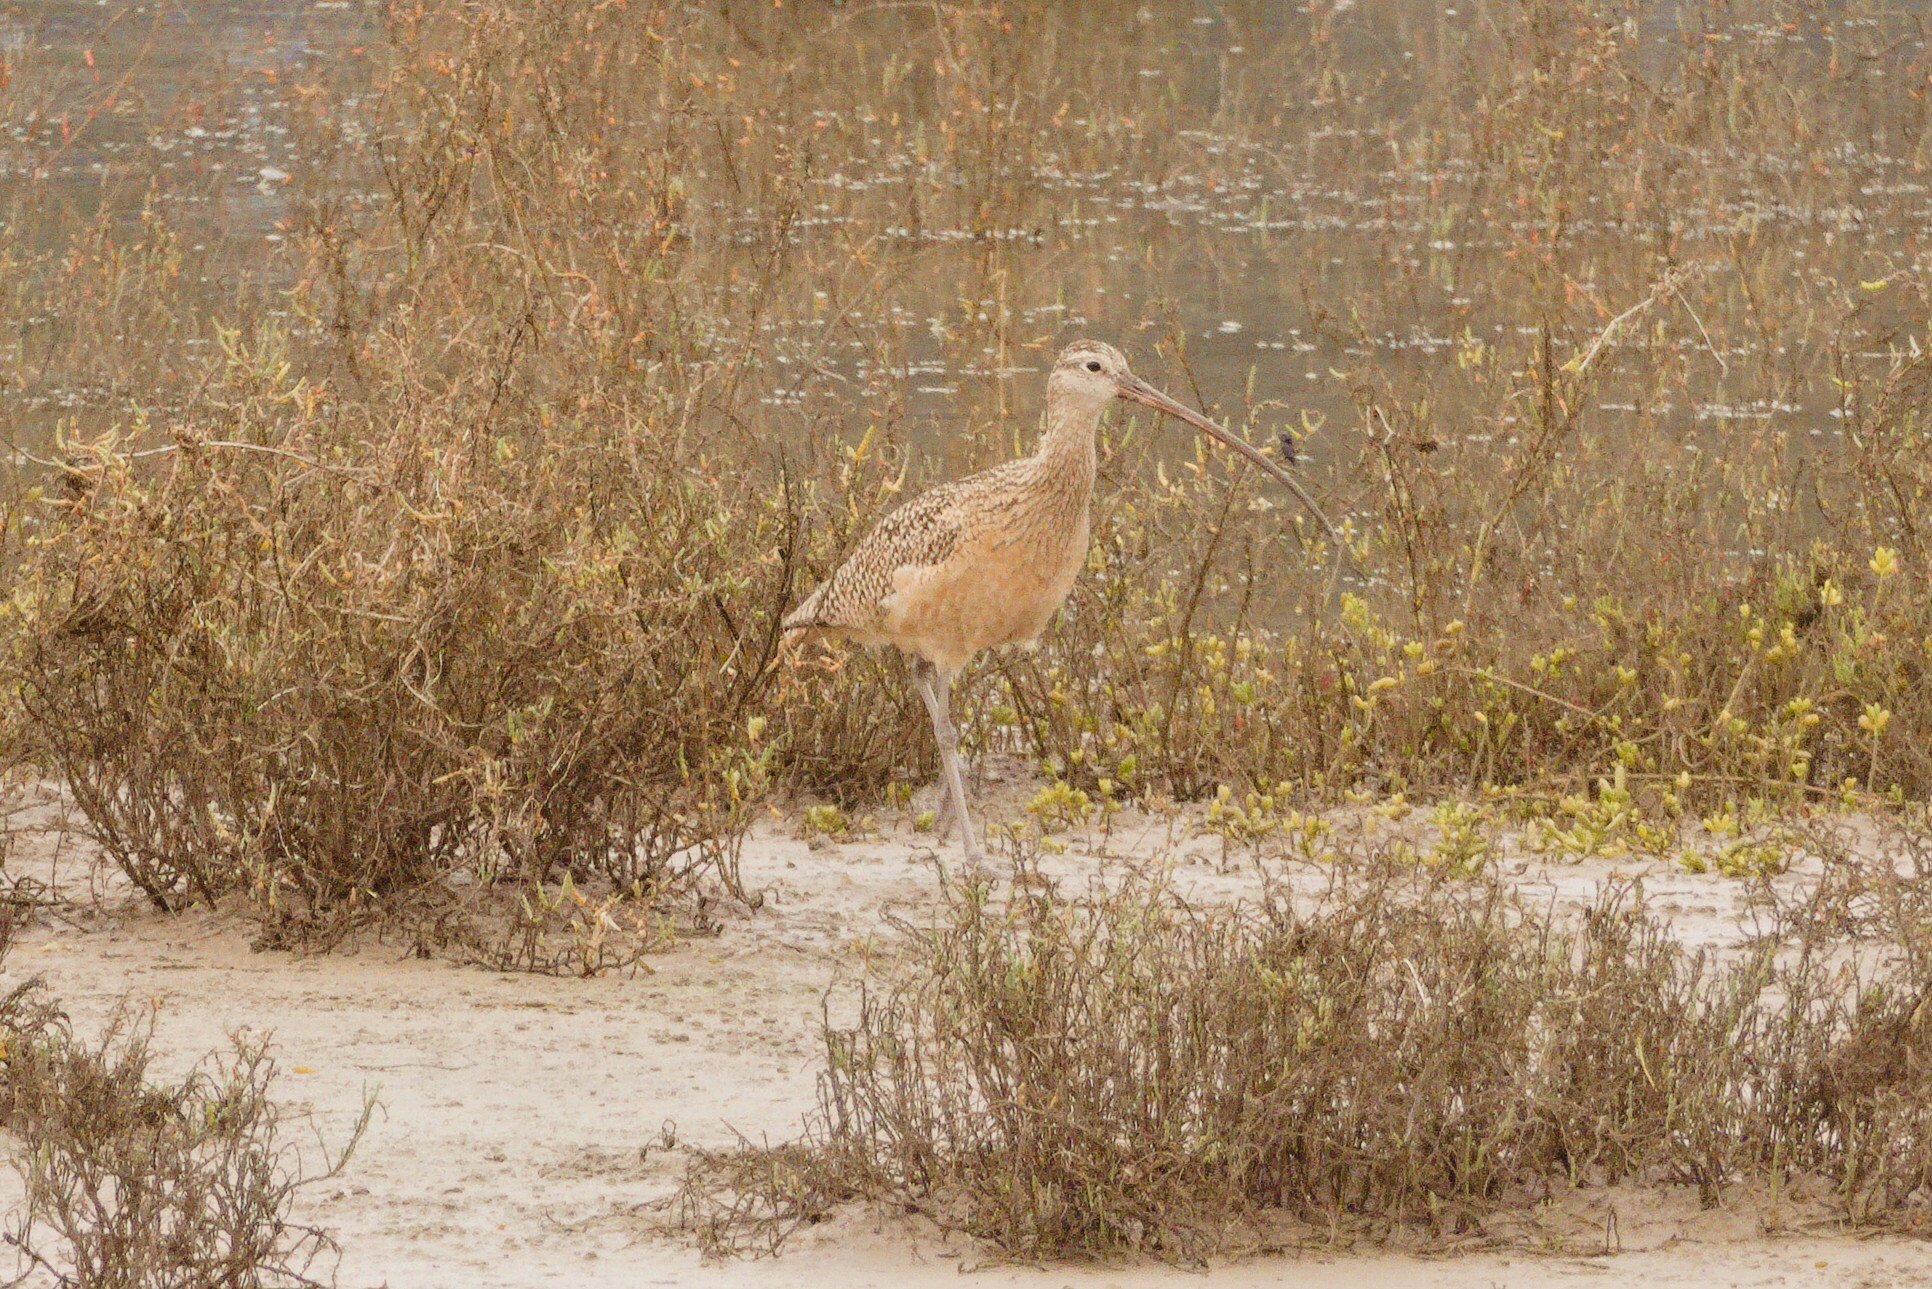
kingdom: Animalia
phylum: Chordata
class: Aves
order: Charadriiformes
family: Scolopacidae
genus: Numenius
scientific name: Numenius americanus
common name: Long-billed curlew
